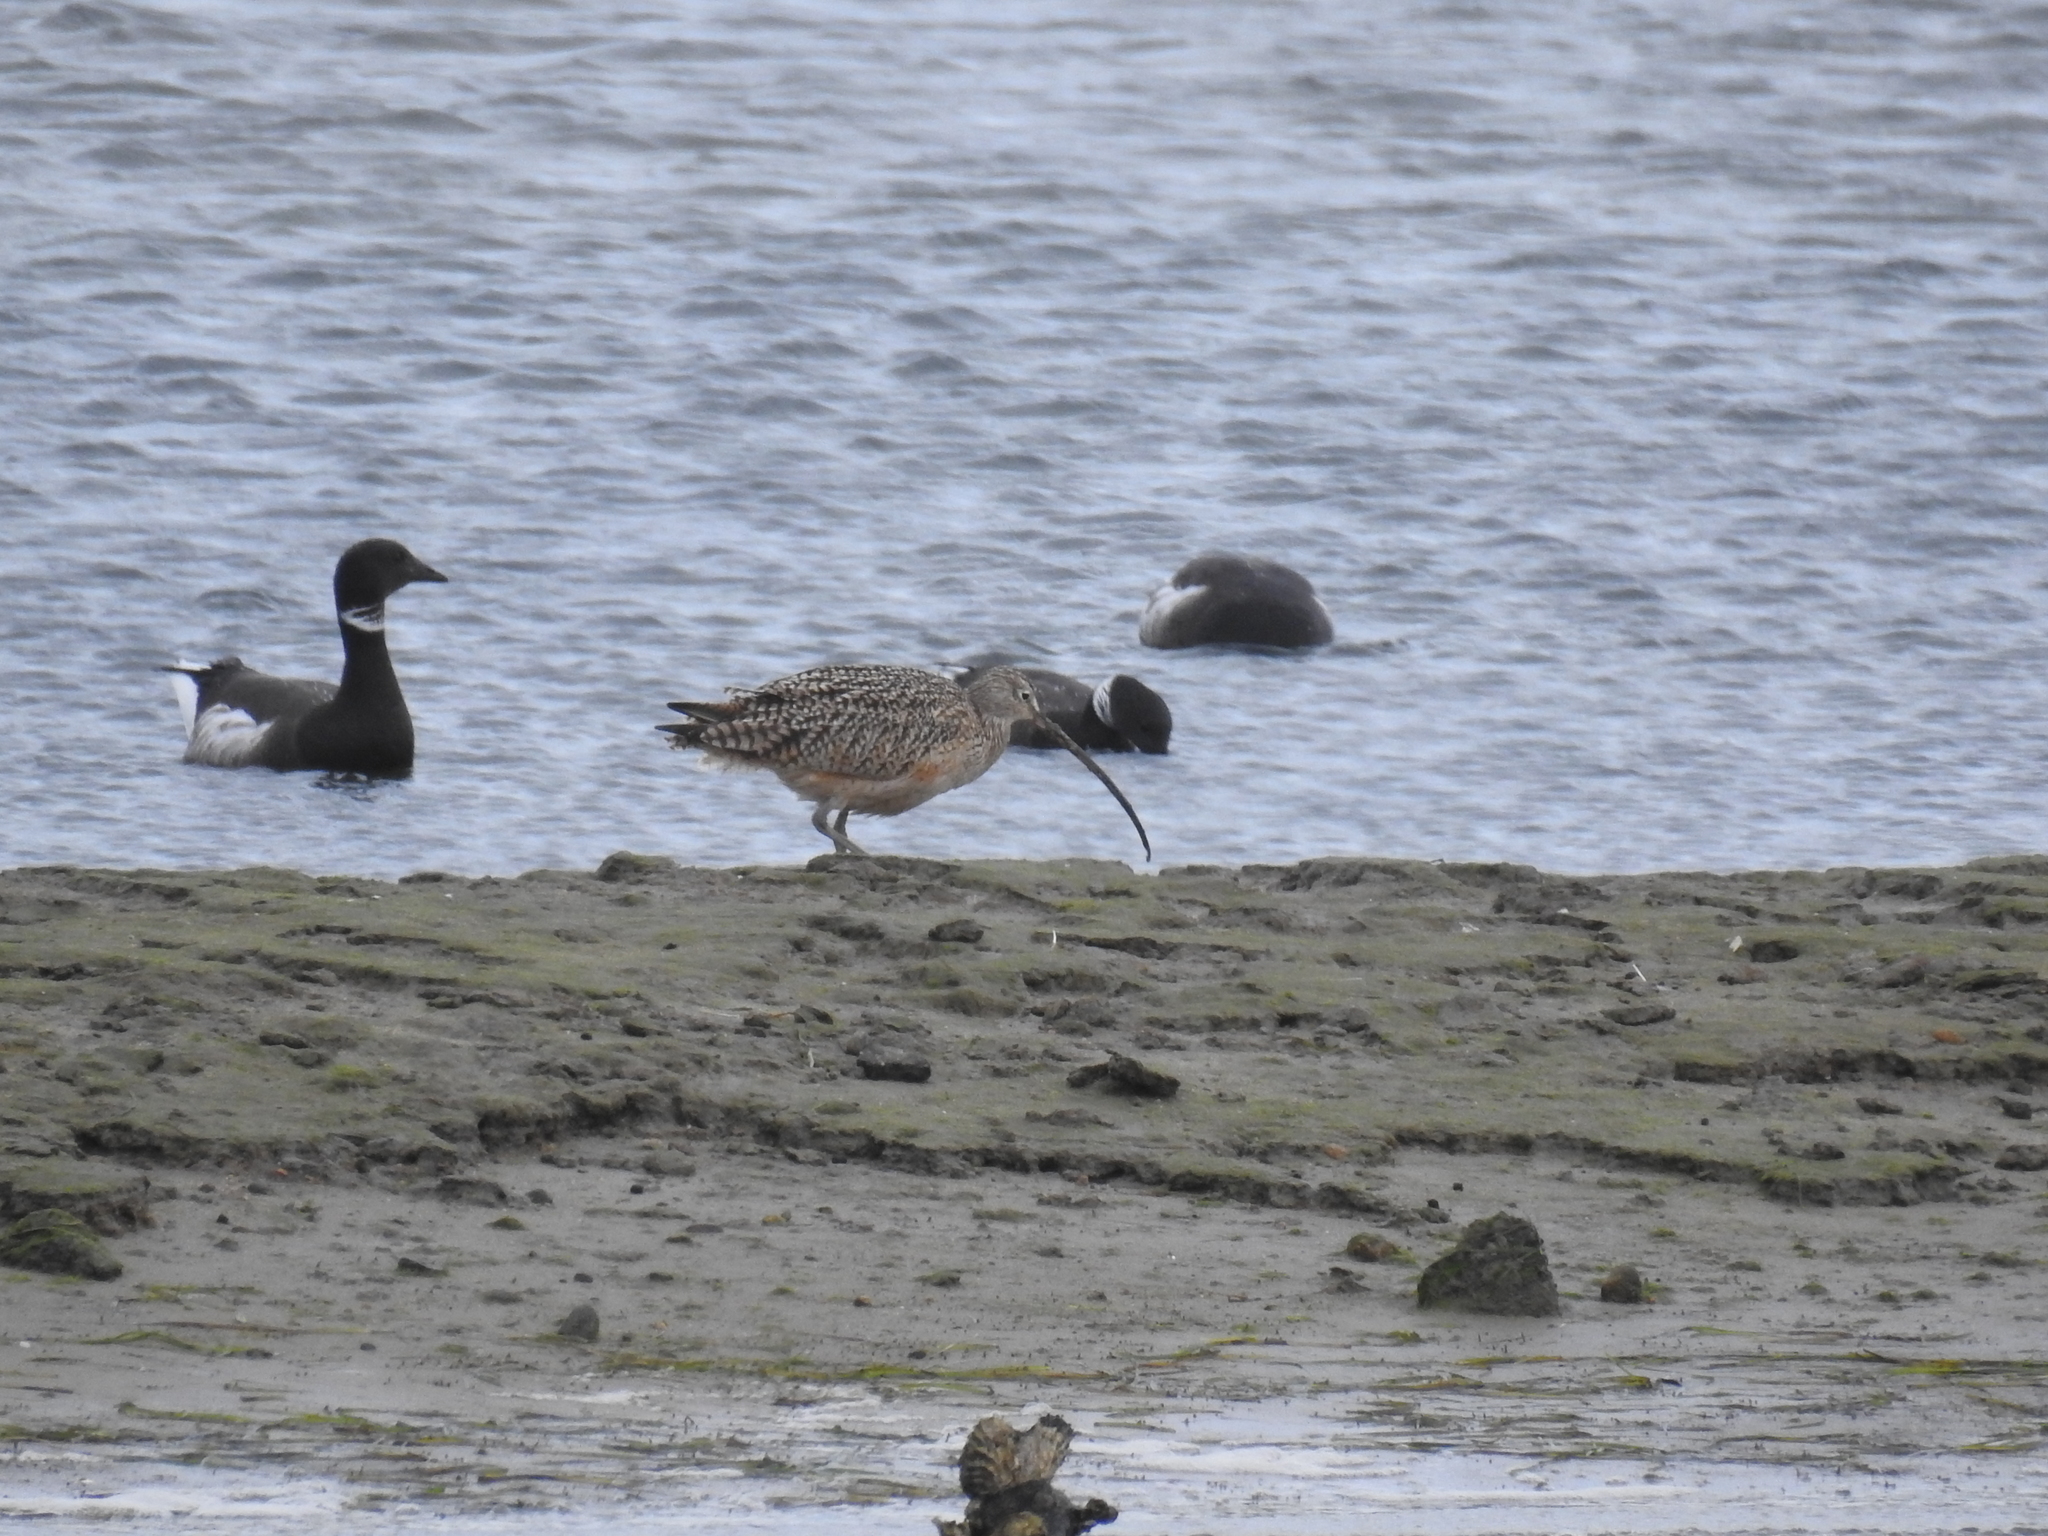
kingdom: Animalia
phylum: Chordata
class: Aves
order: Anseriformes
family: Anatidae
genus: Branta
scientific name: Branta bernicla
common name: Brant goose
